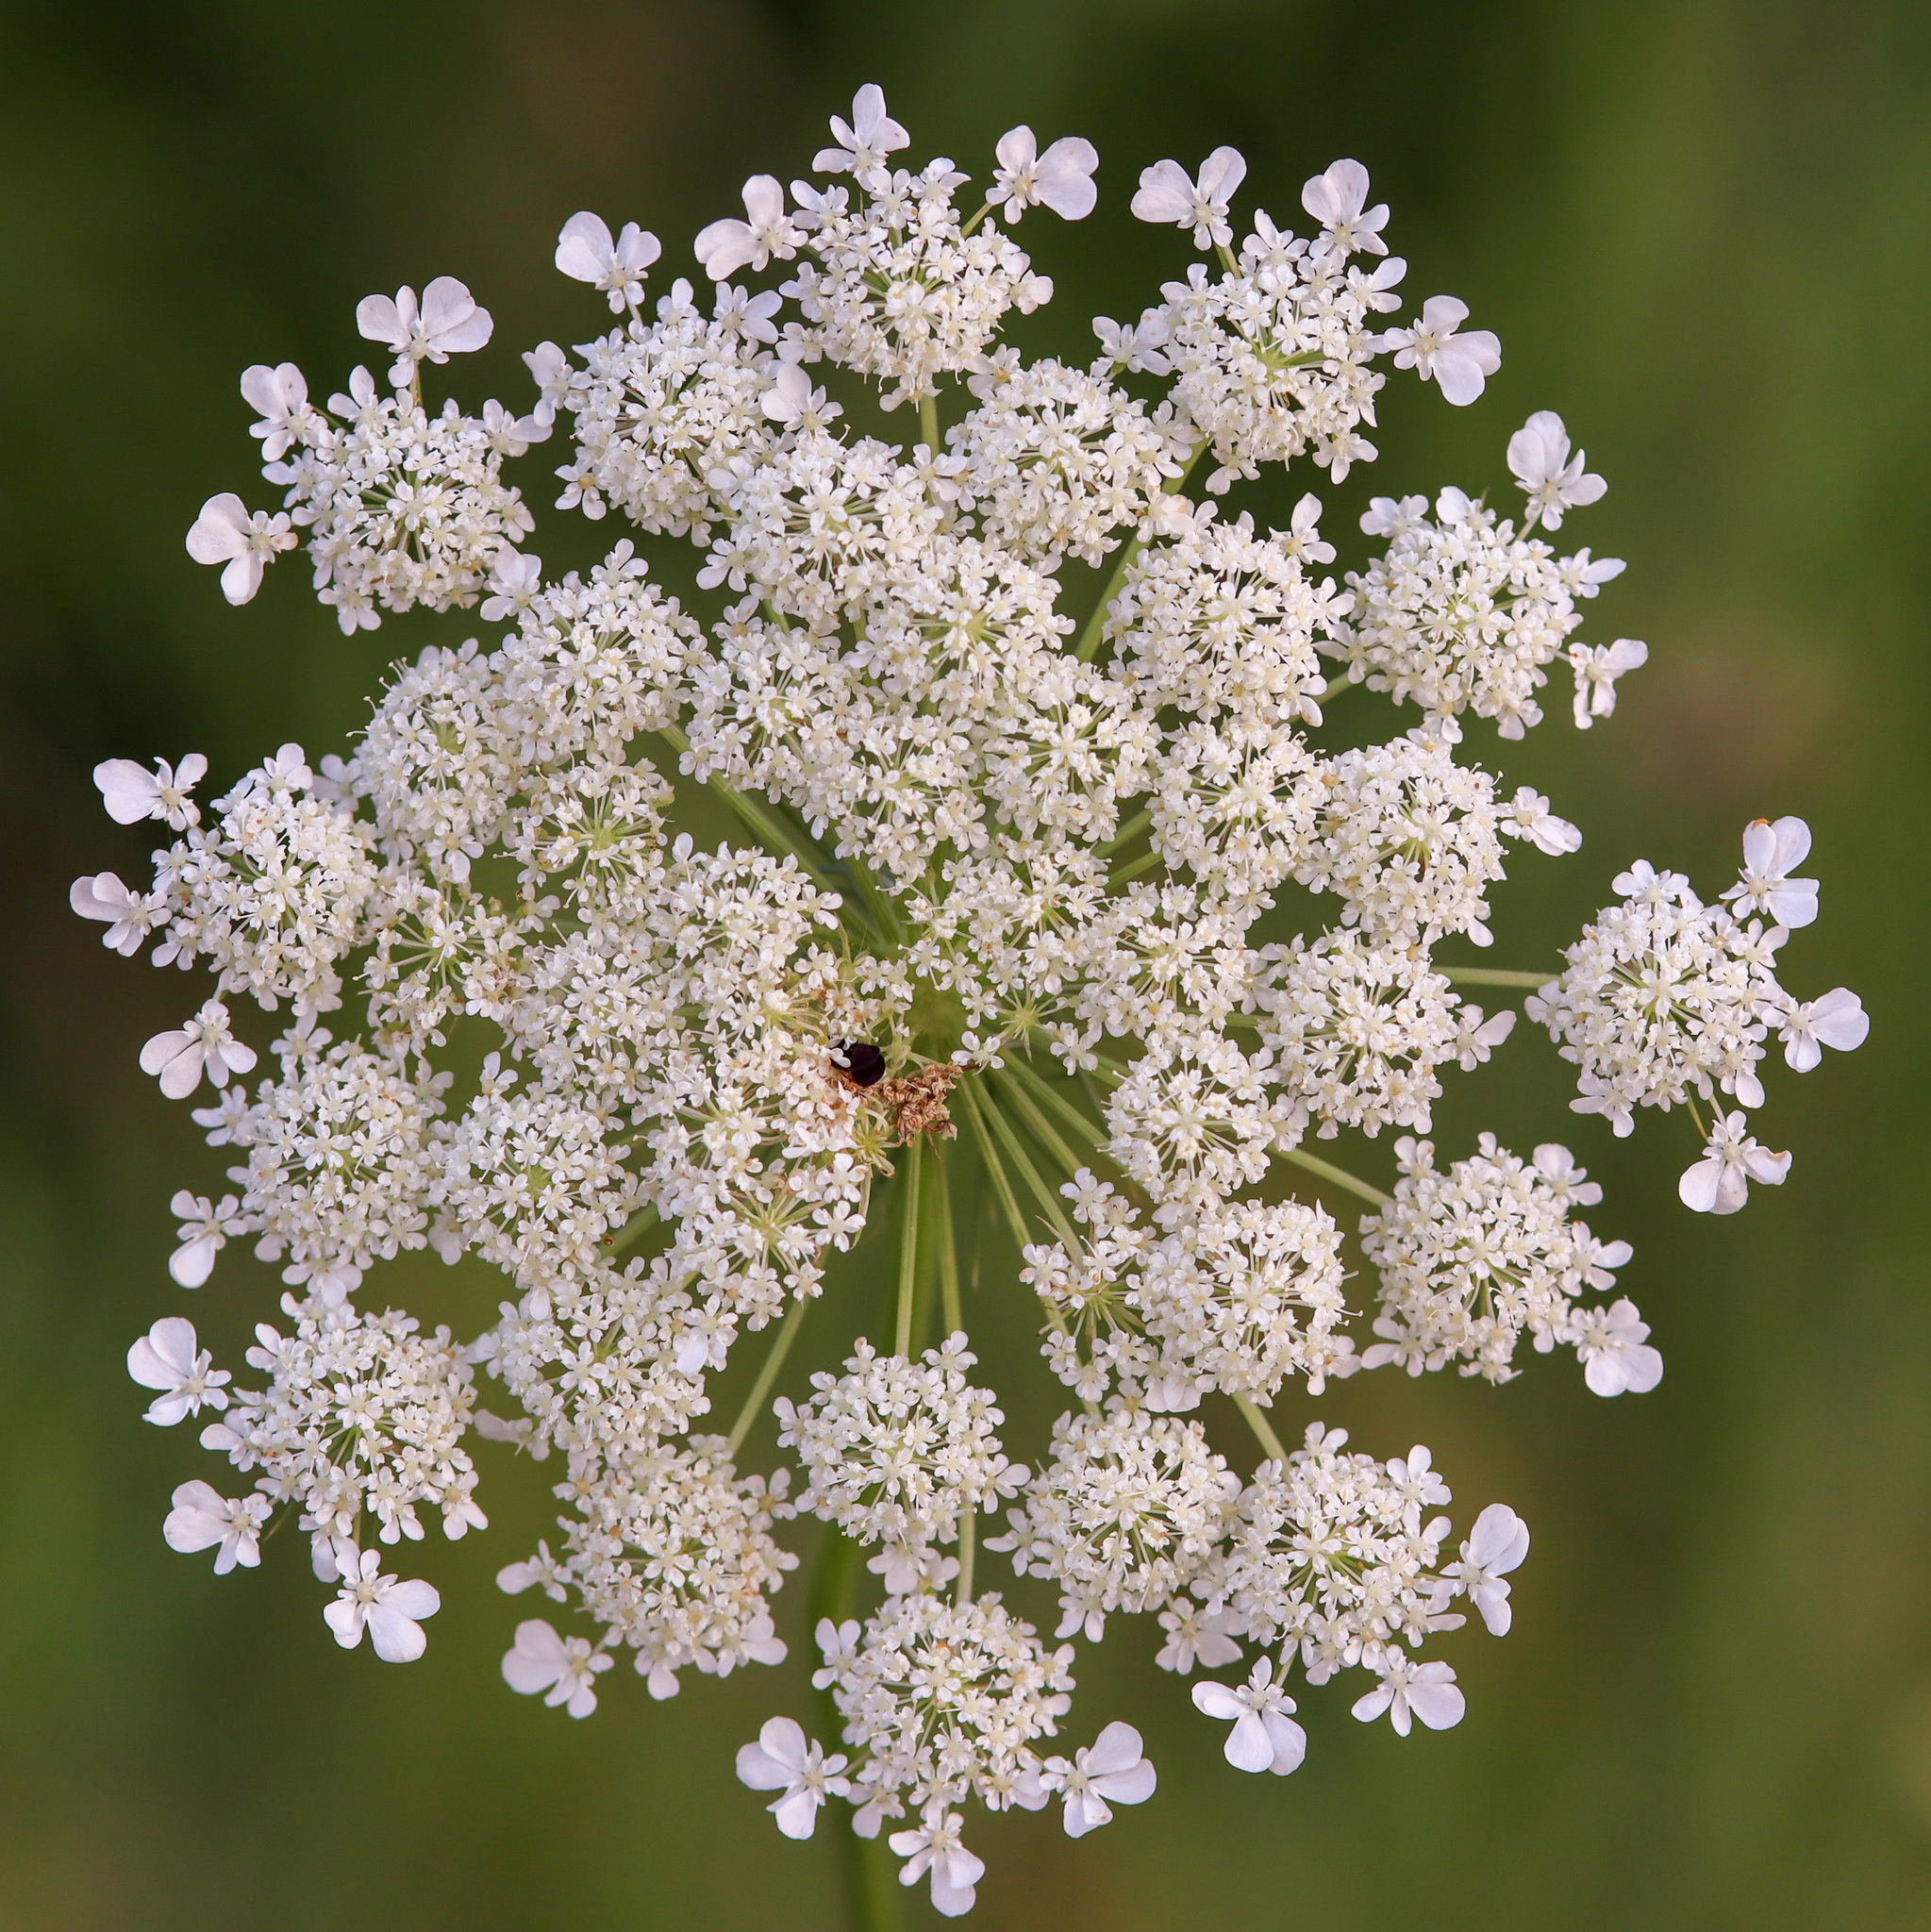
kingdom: Plantae
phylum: Tracheophyta
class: Magnoliopsida
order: Apiales
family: Apiaceae
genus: Daucus
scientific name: Daucus carota
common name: Wild carrot
